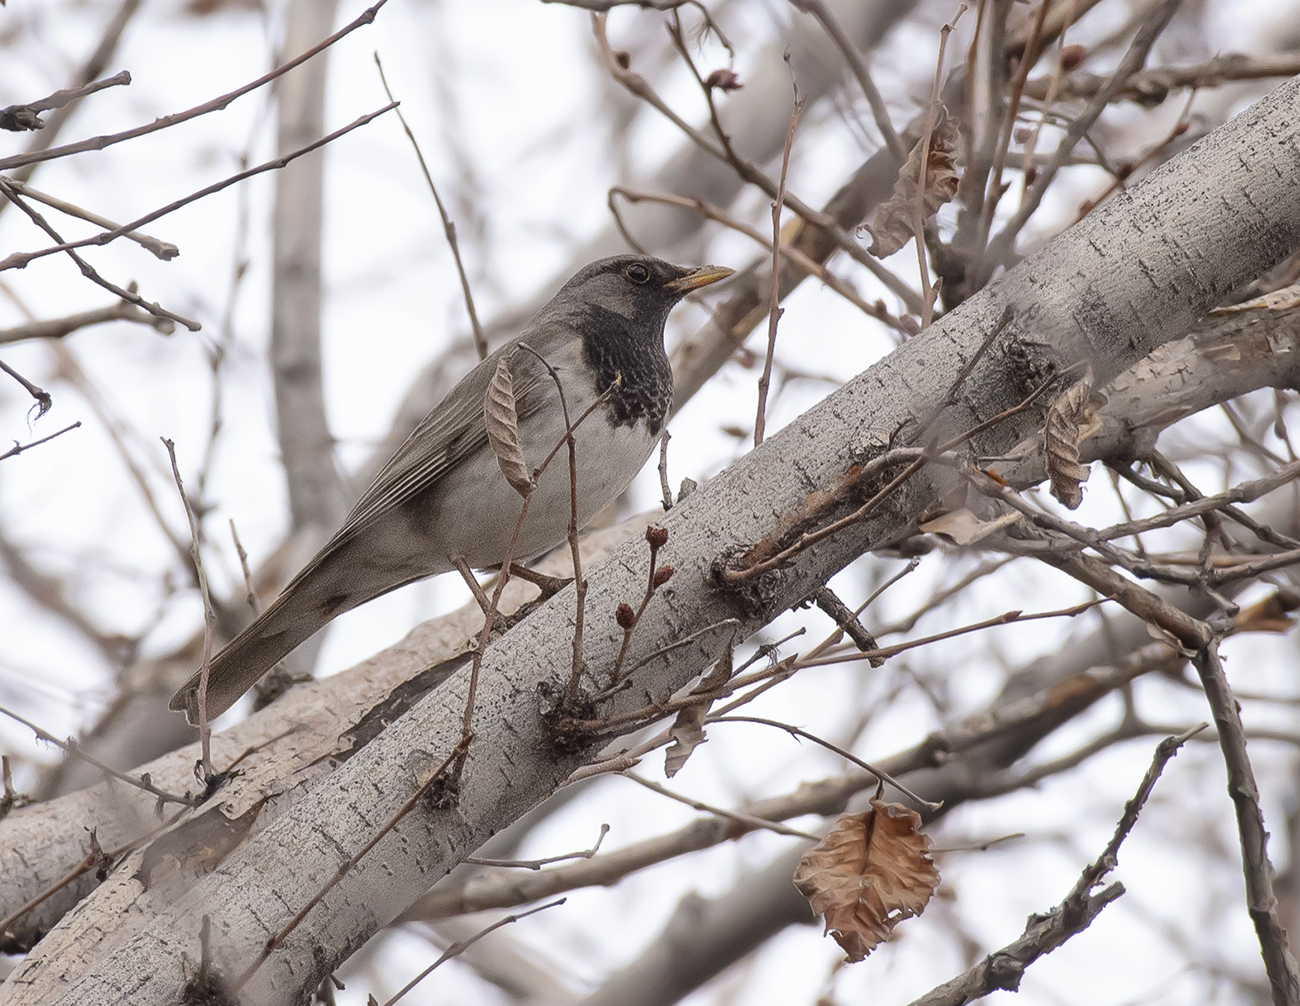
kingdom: Animalia
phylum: Chordata
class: Aves
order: Passeriformes
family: Turdidae
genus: Turdus
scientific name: Turdus atrogularis
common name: Black-throated thrush
